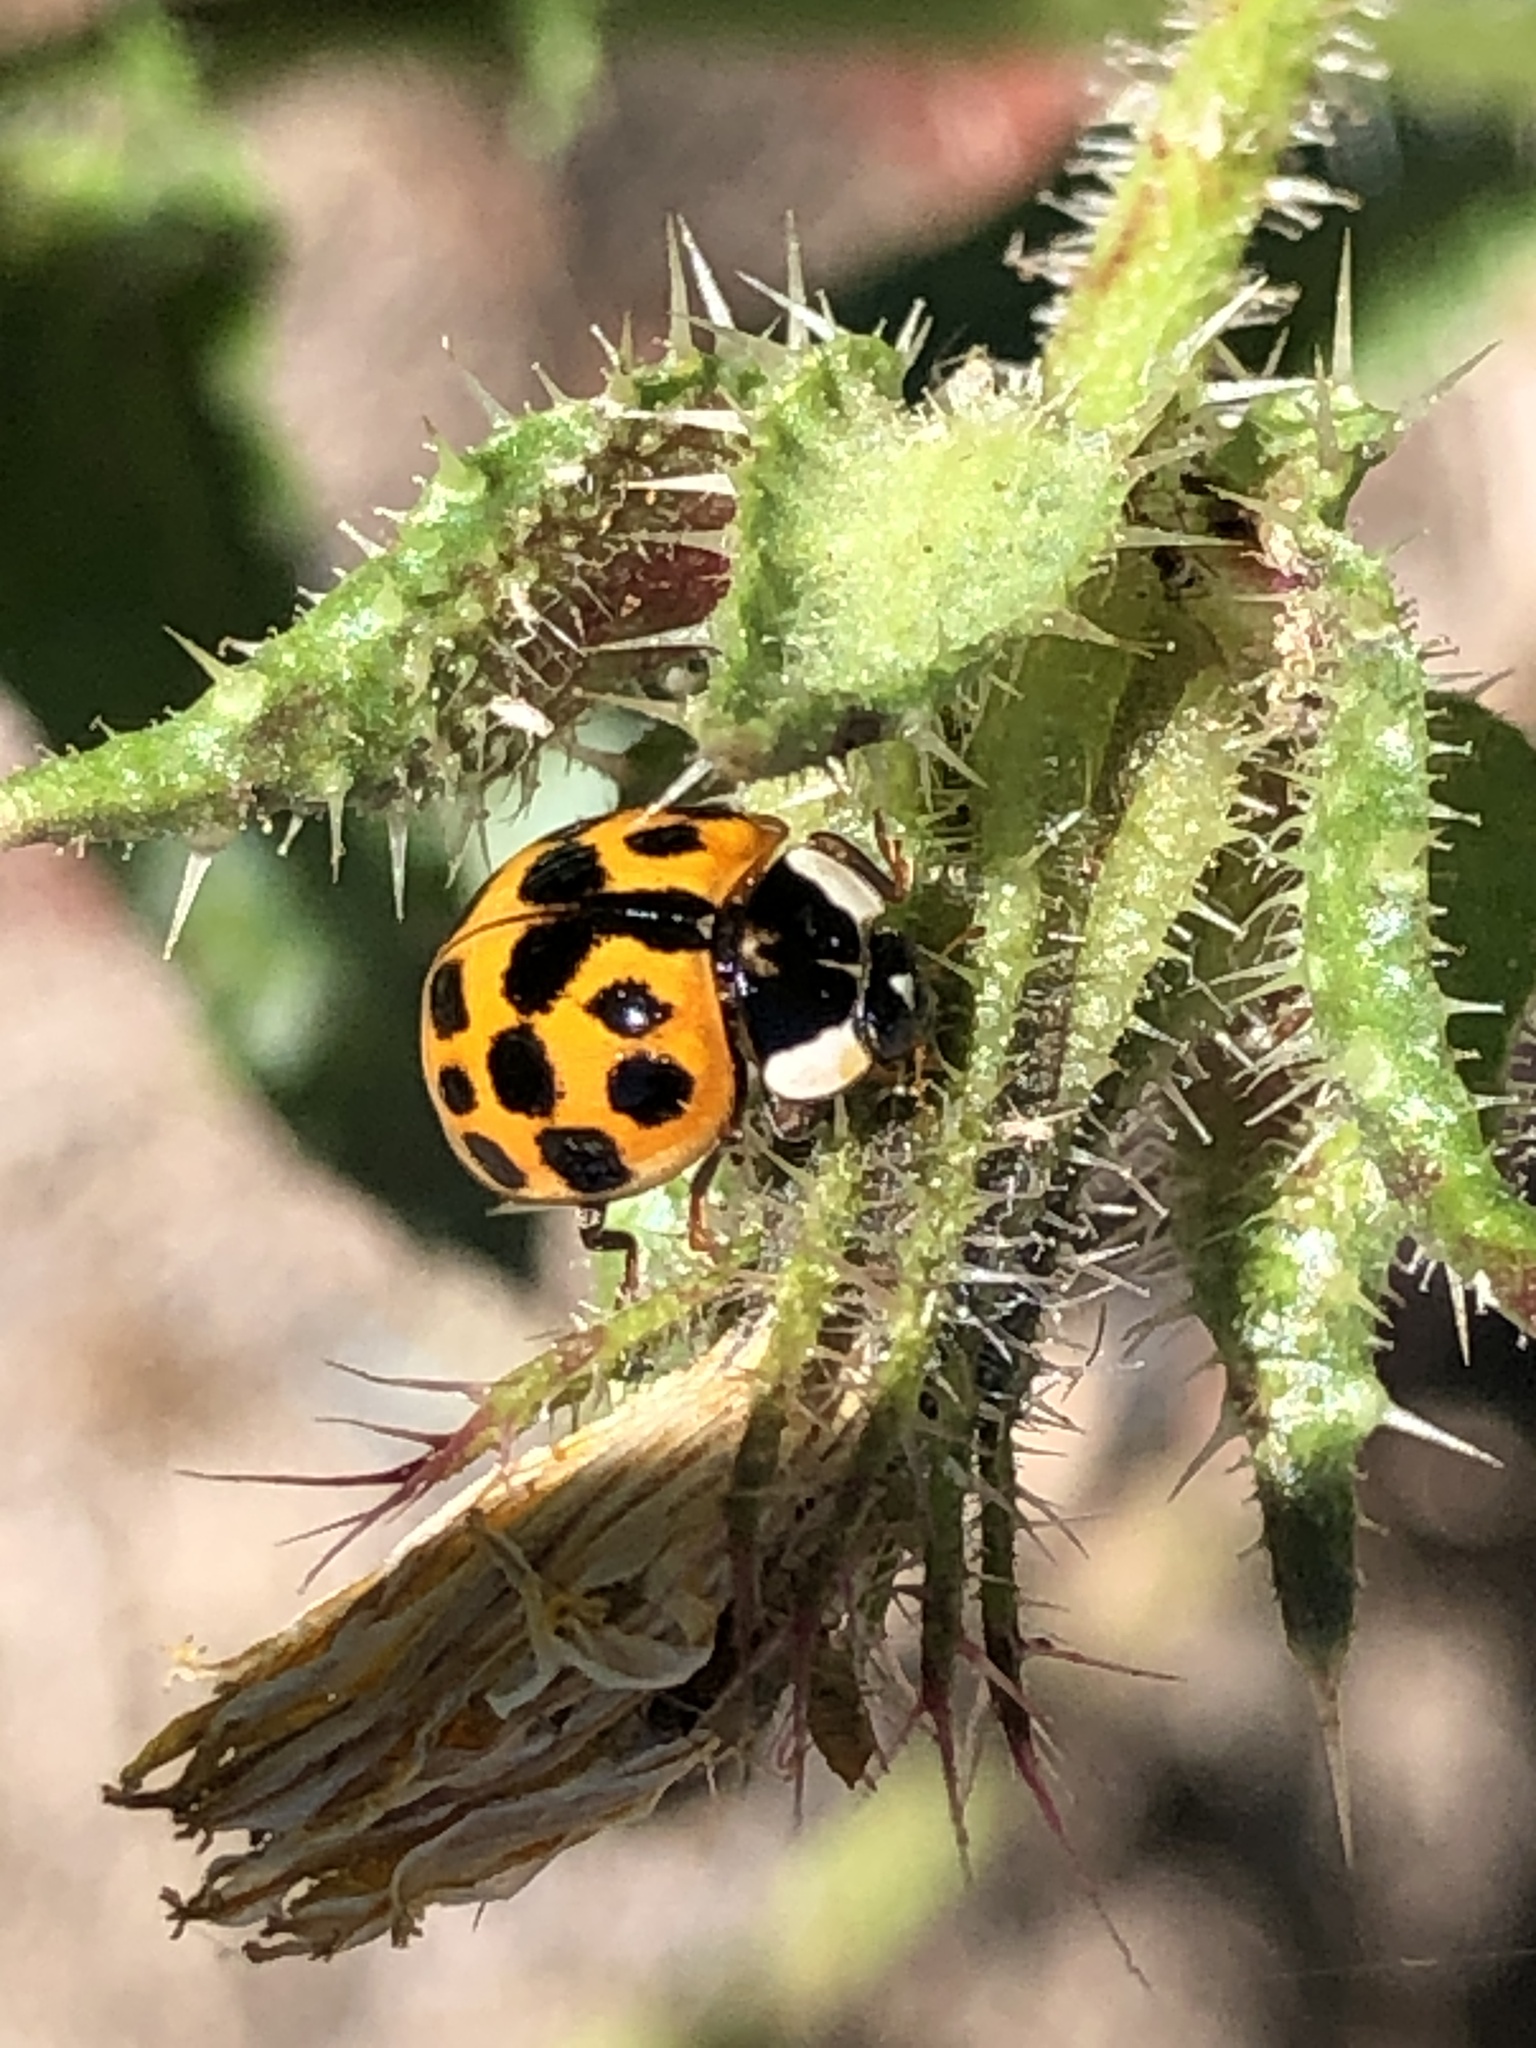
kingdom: Animalia
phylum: Arthropoda
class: Insecta
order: Coleoptera
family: Coccinellidae
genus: Harmonia
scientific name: Harmonia axyridis
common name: Harlequin ladybird
